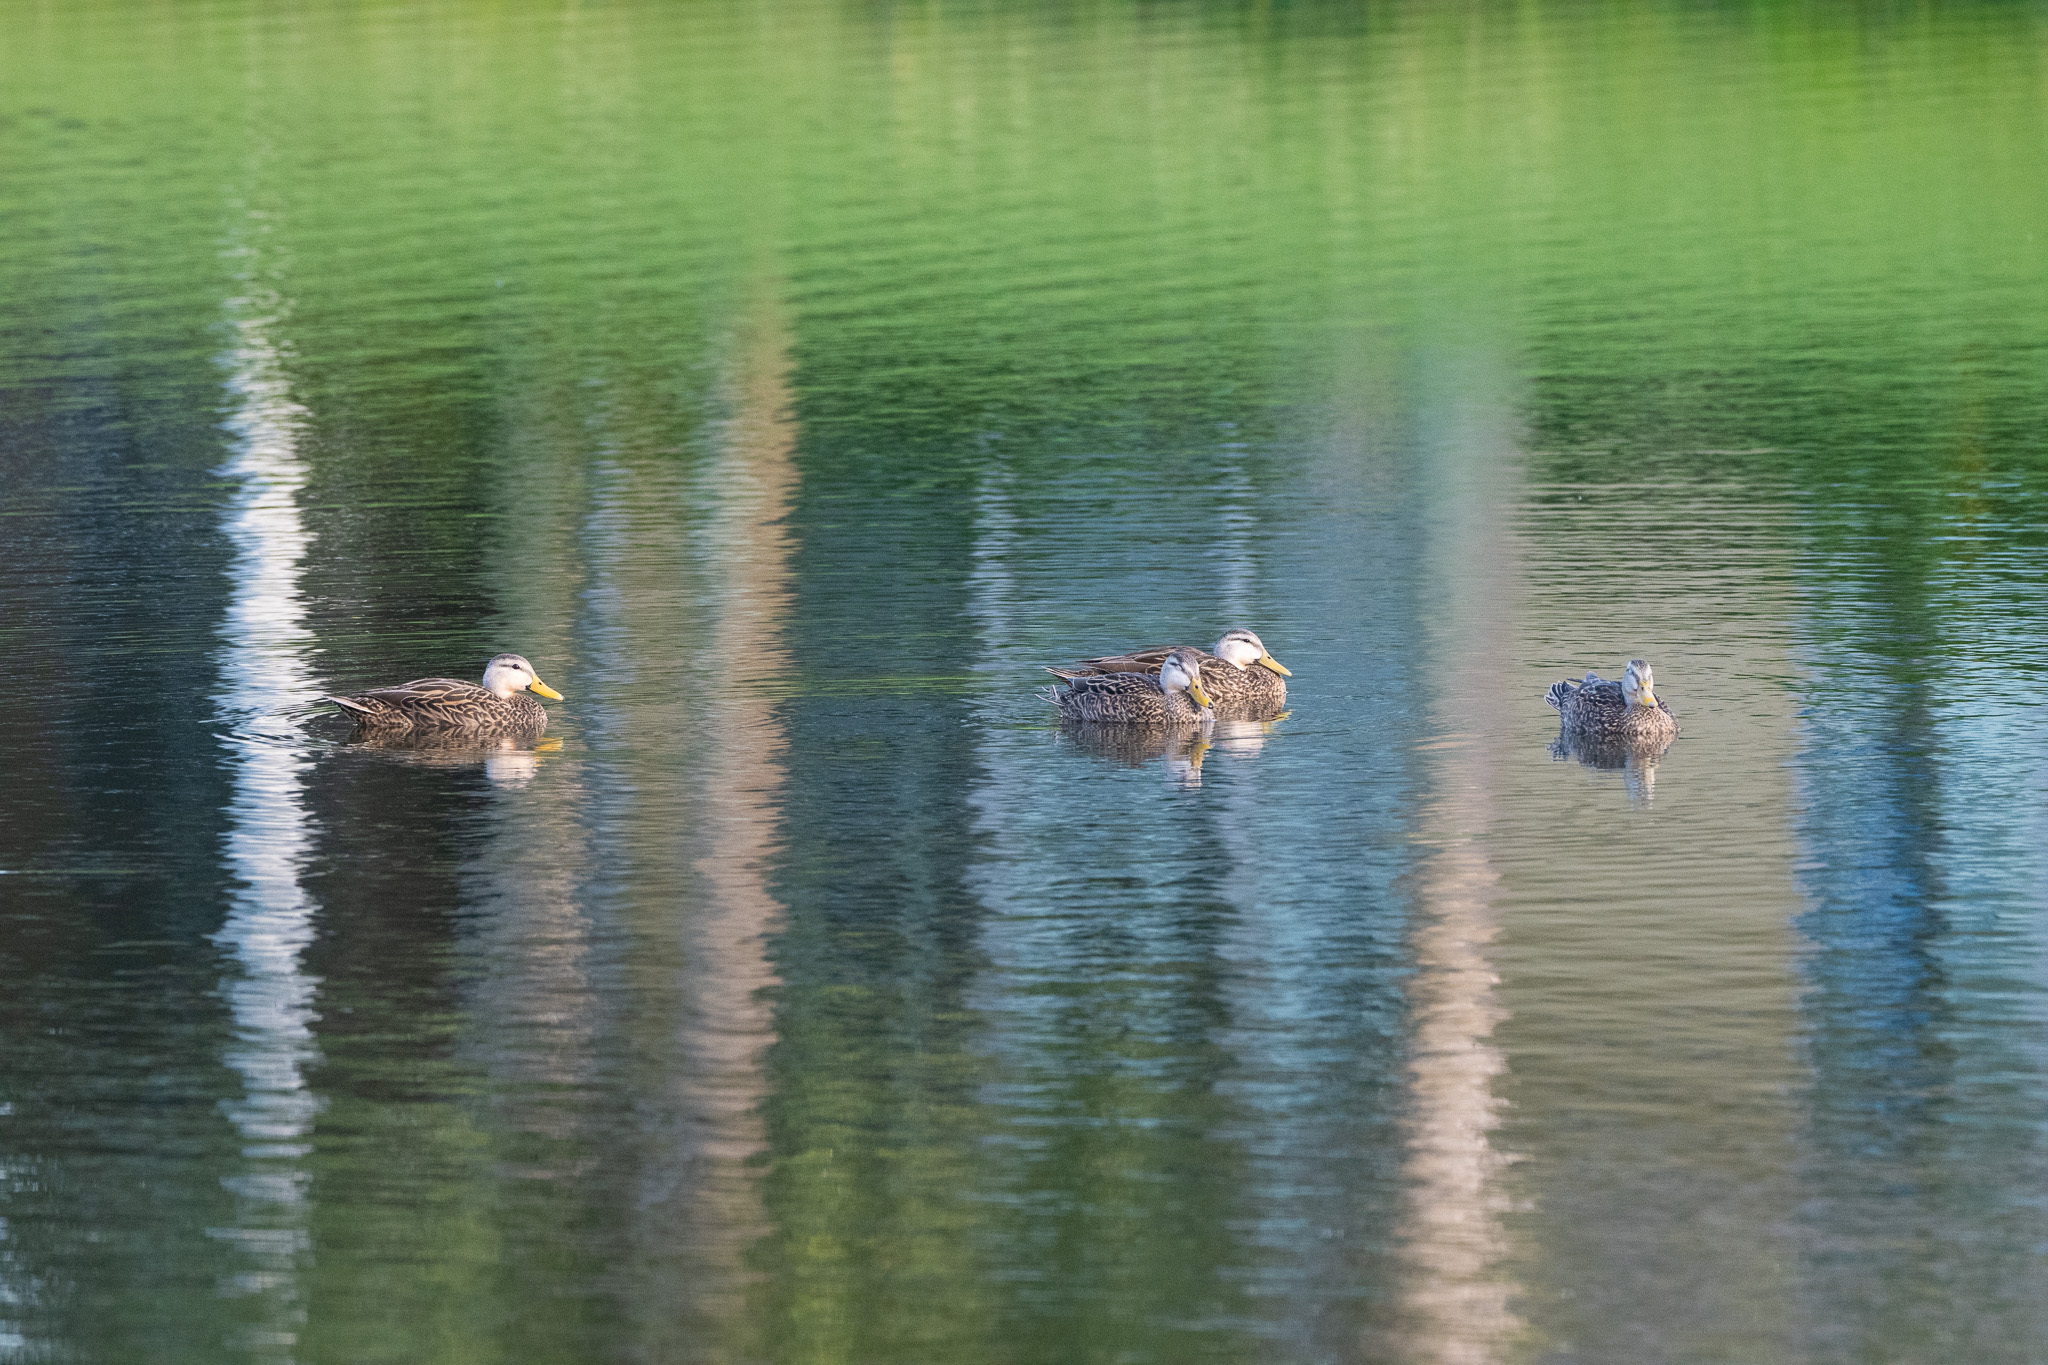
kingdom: Animalia
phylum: Chordata
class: Aves
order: Anseriformes
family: Anatidae
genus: Anas
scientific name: Anas fulvigula
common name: Mottled duck
